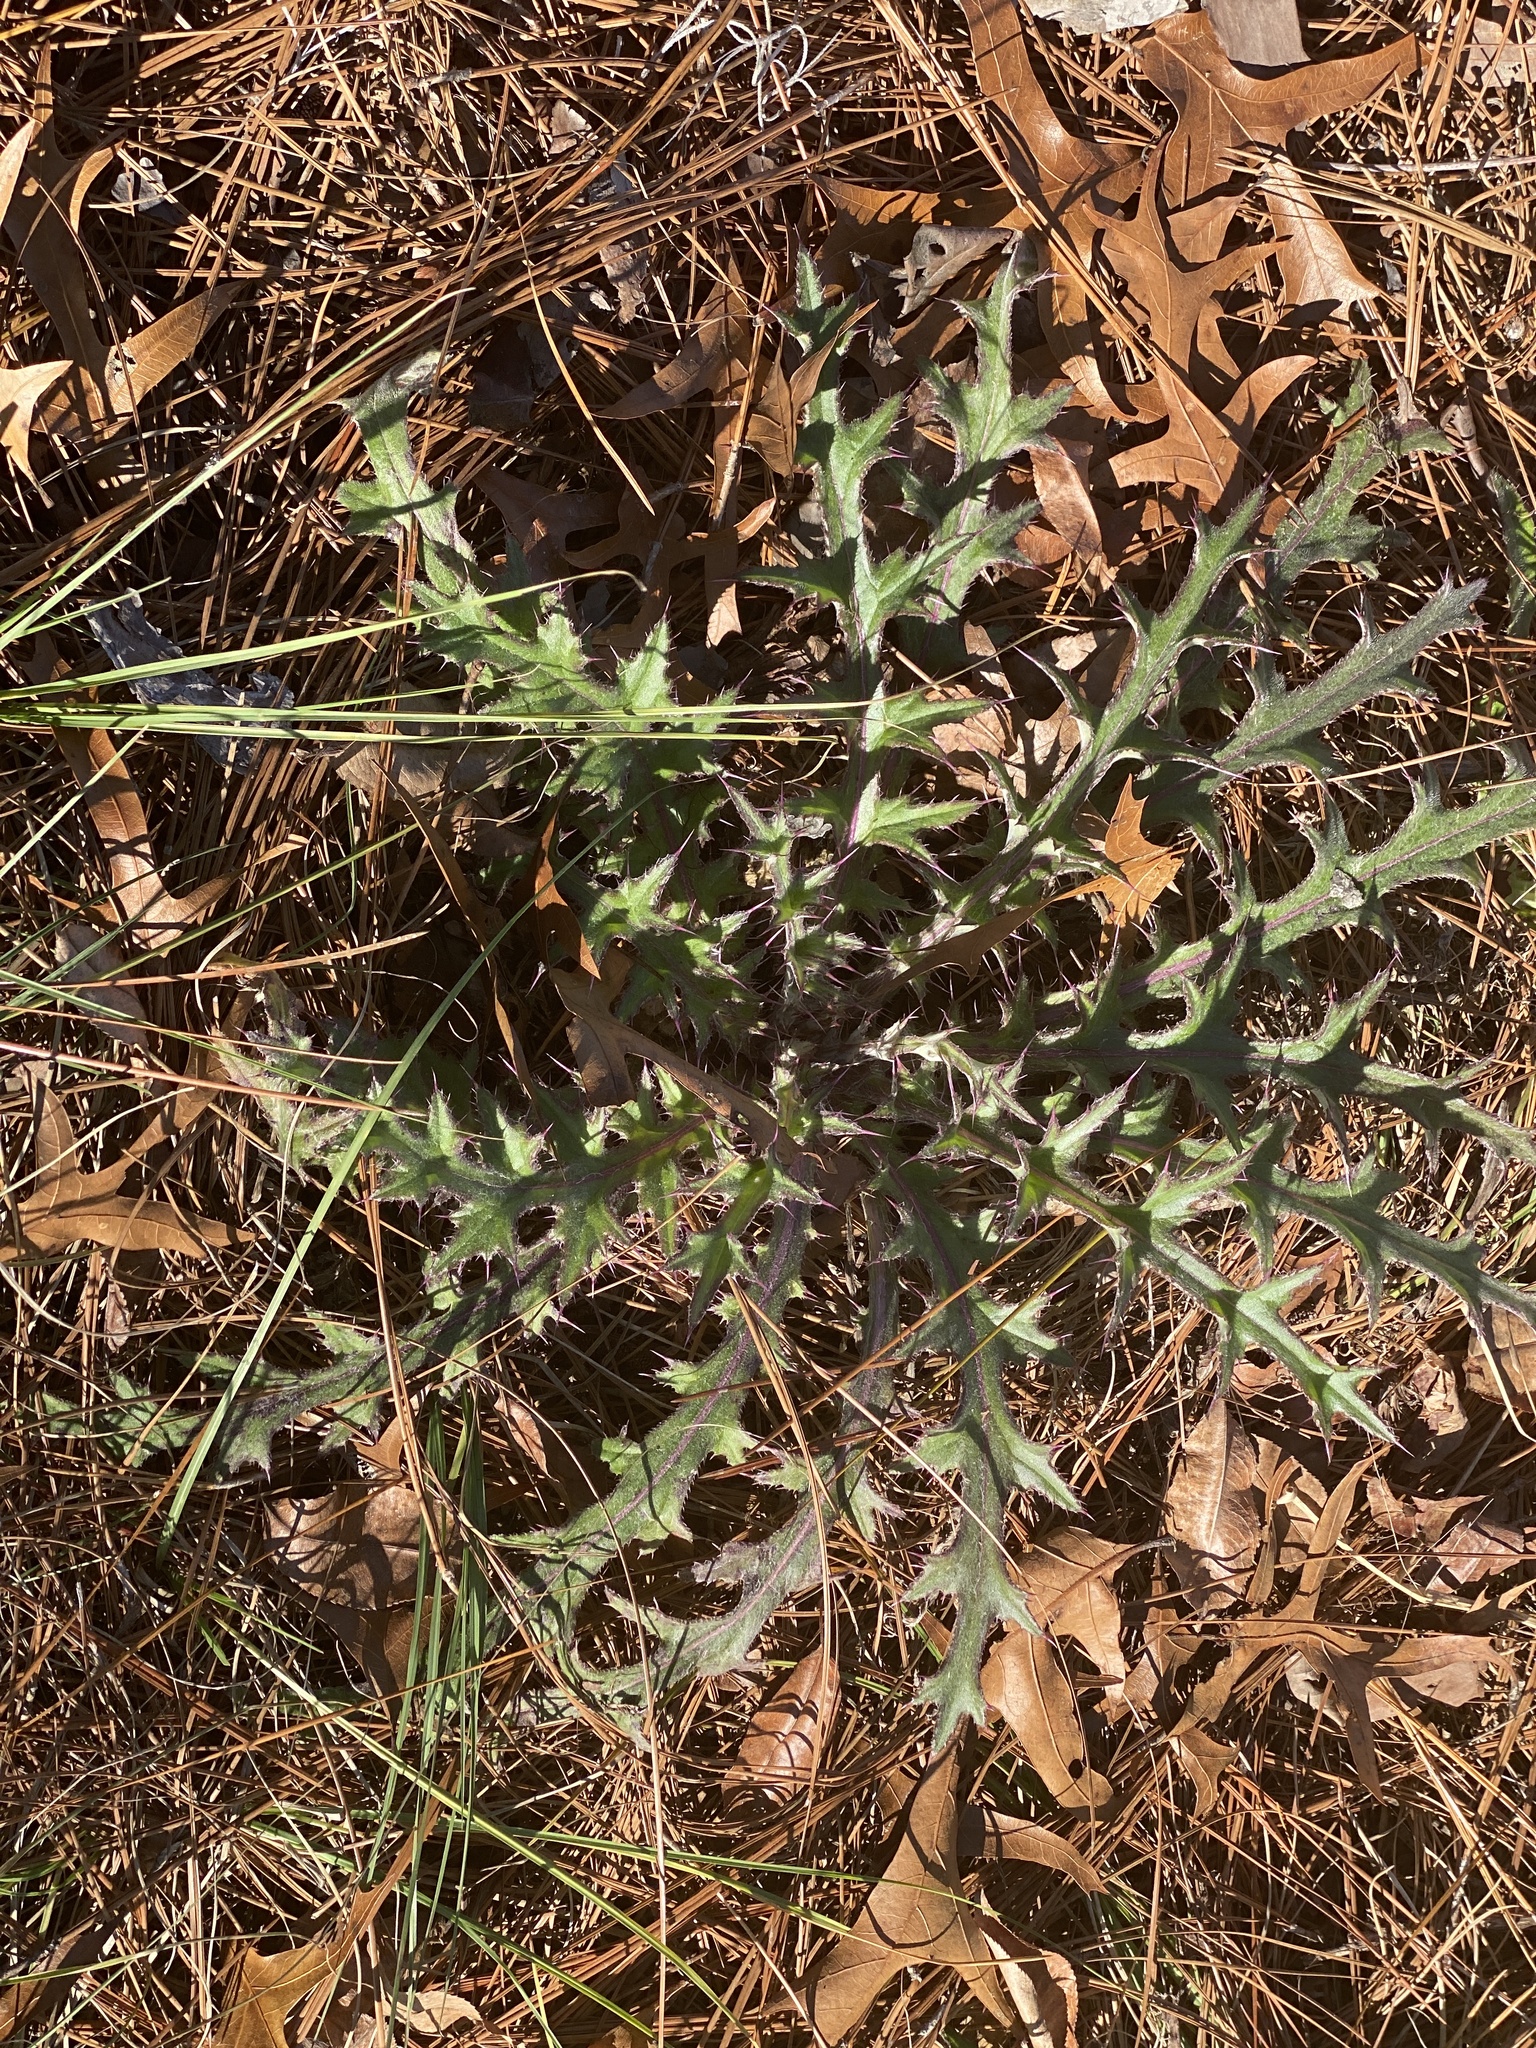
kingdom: Plantae
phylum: Tracheophyta
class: Magnoliopsida
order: Asterales
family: Asteraceae
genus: Cirsium
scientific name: Cirsium horridulum
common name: Bristly thistle
